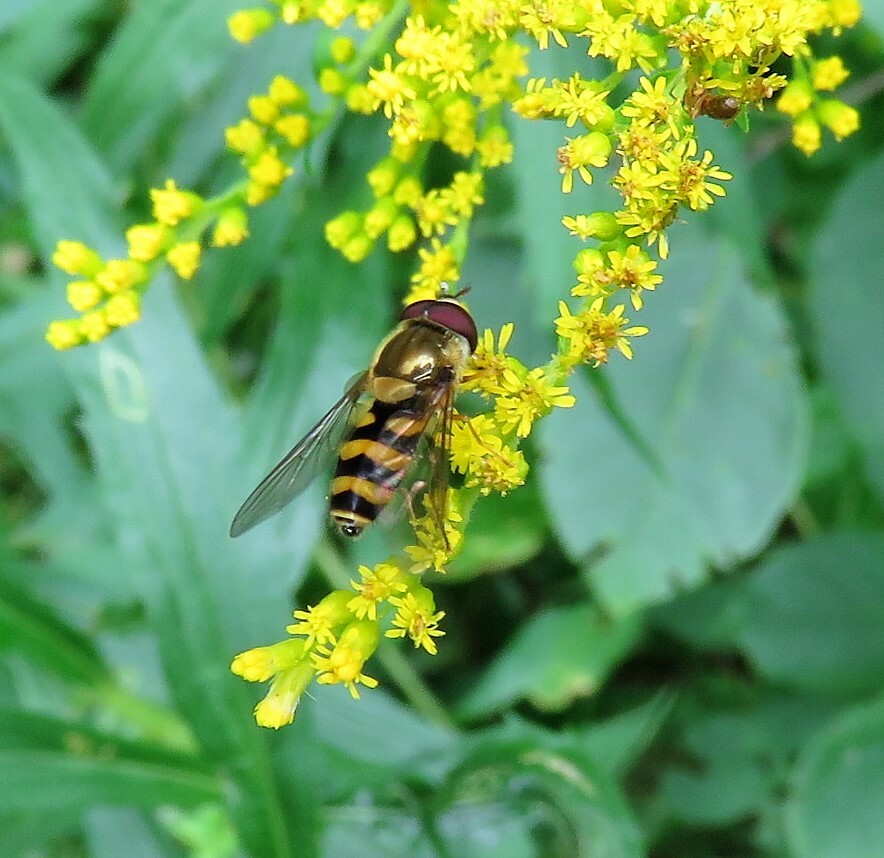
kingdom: Animalia
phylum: Arthropoda
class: Insecta
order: Diptera
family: Syrphidae
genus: Syrphus
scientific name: Syrphus
